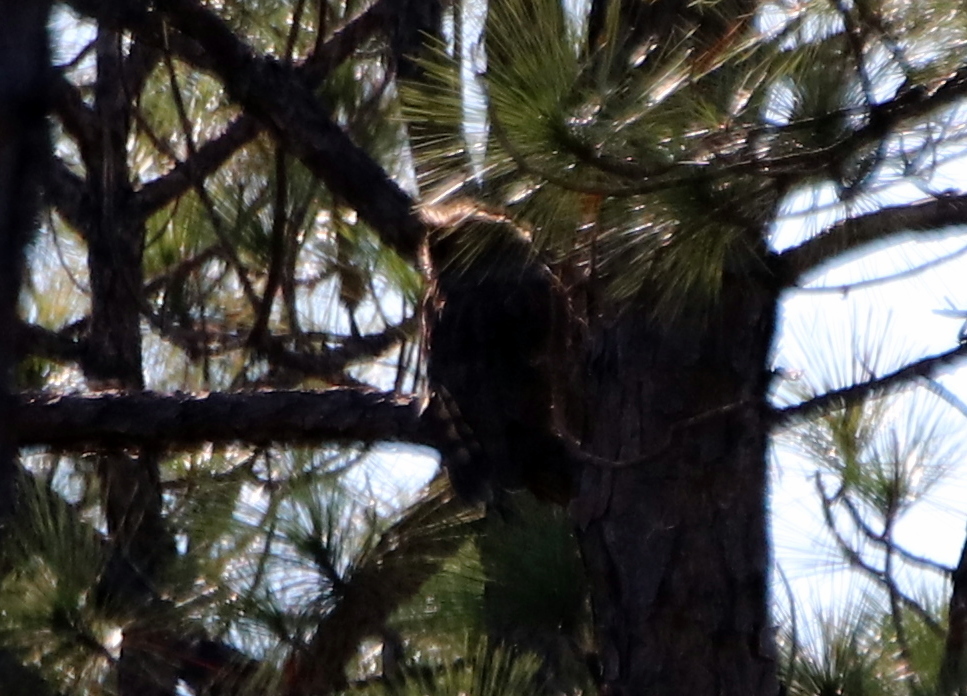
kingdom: Animalia
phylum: Chordata
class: Aves
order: Strigiformes
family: Strigidae
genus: Bubo
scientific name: Bubo virginianus
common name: Great horned owl
